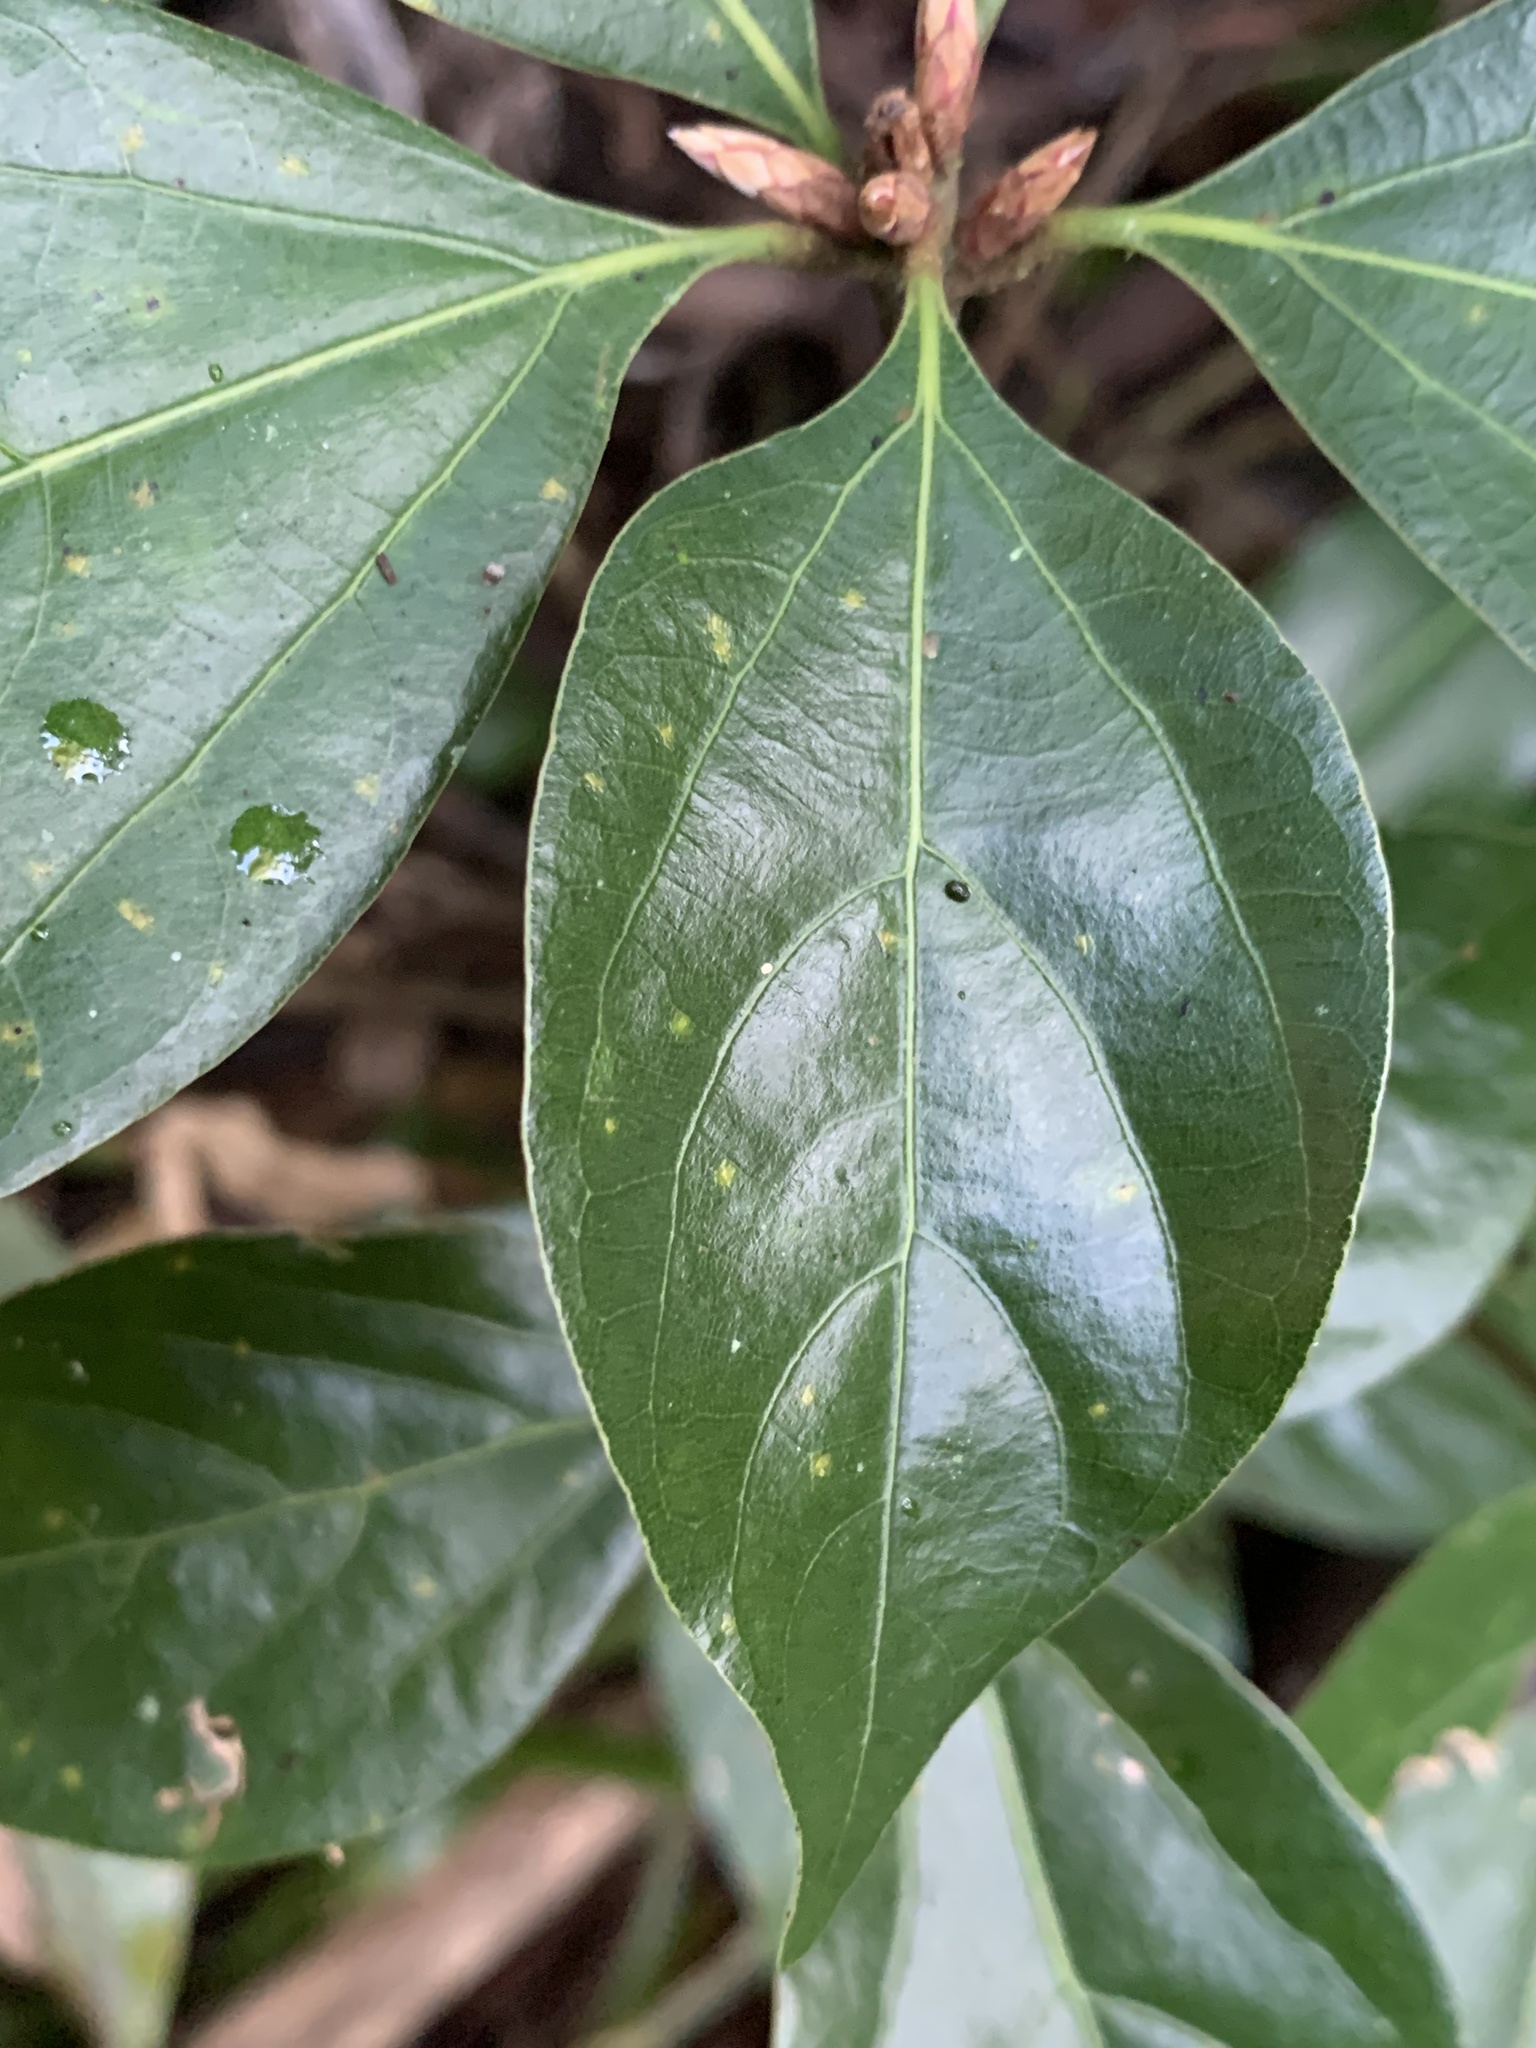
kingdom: Plantae
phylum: Tracheophyta
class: Magnoliopsida
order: Laurales
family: Lauraceae
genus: Neolitsea
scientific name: Neolitsea dealbata
